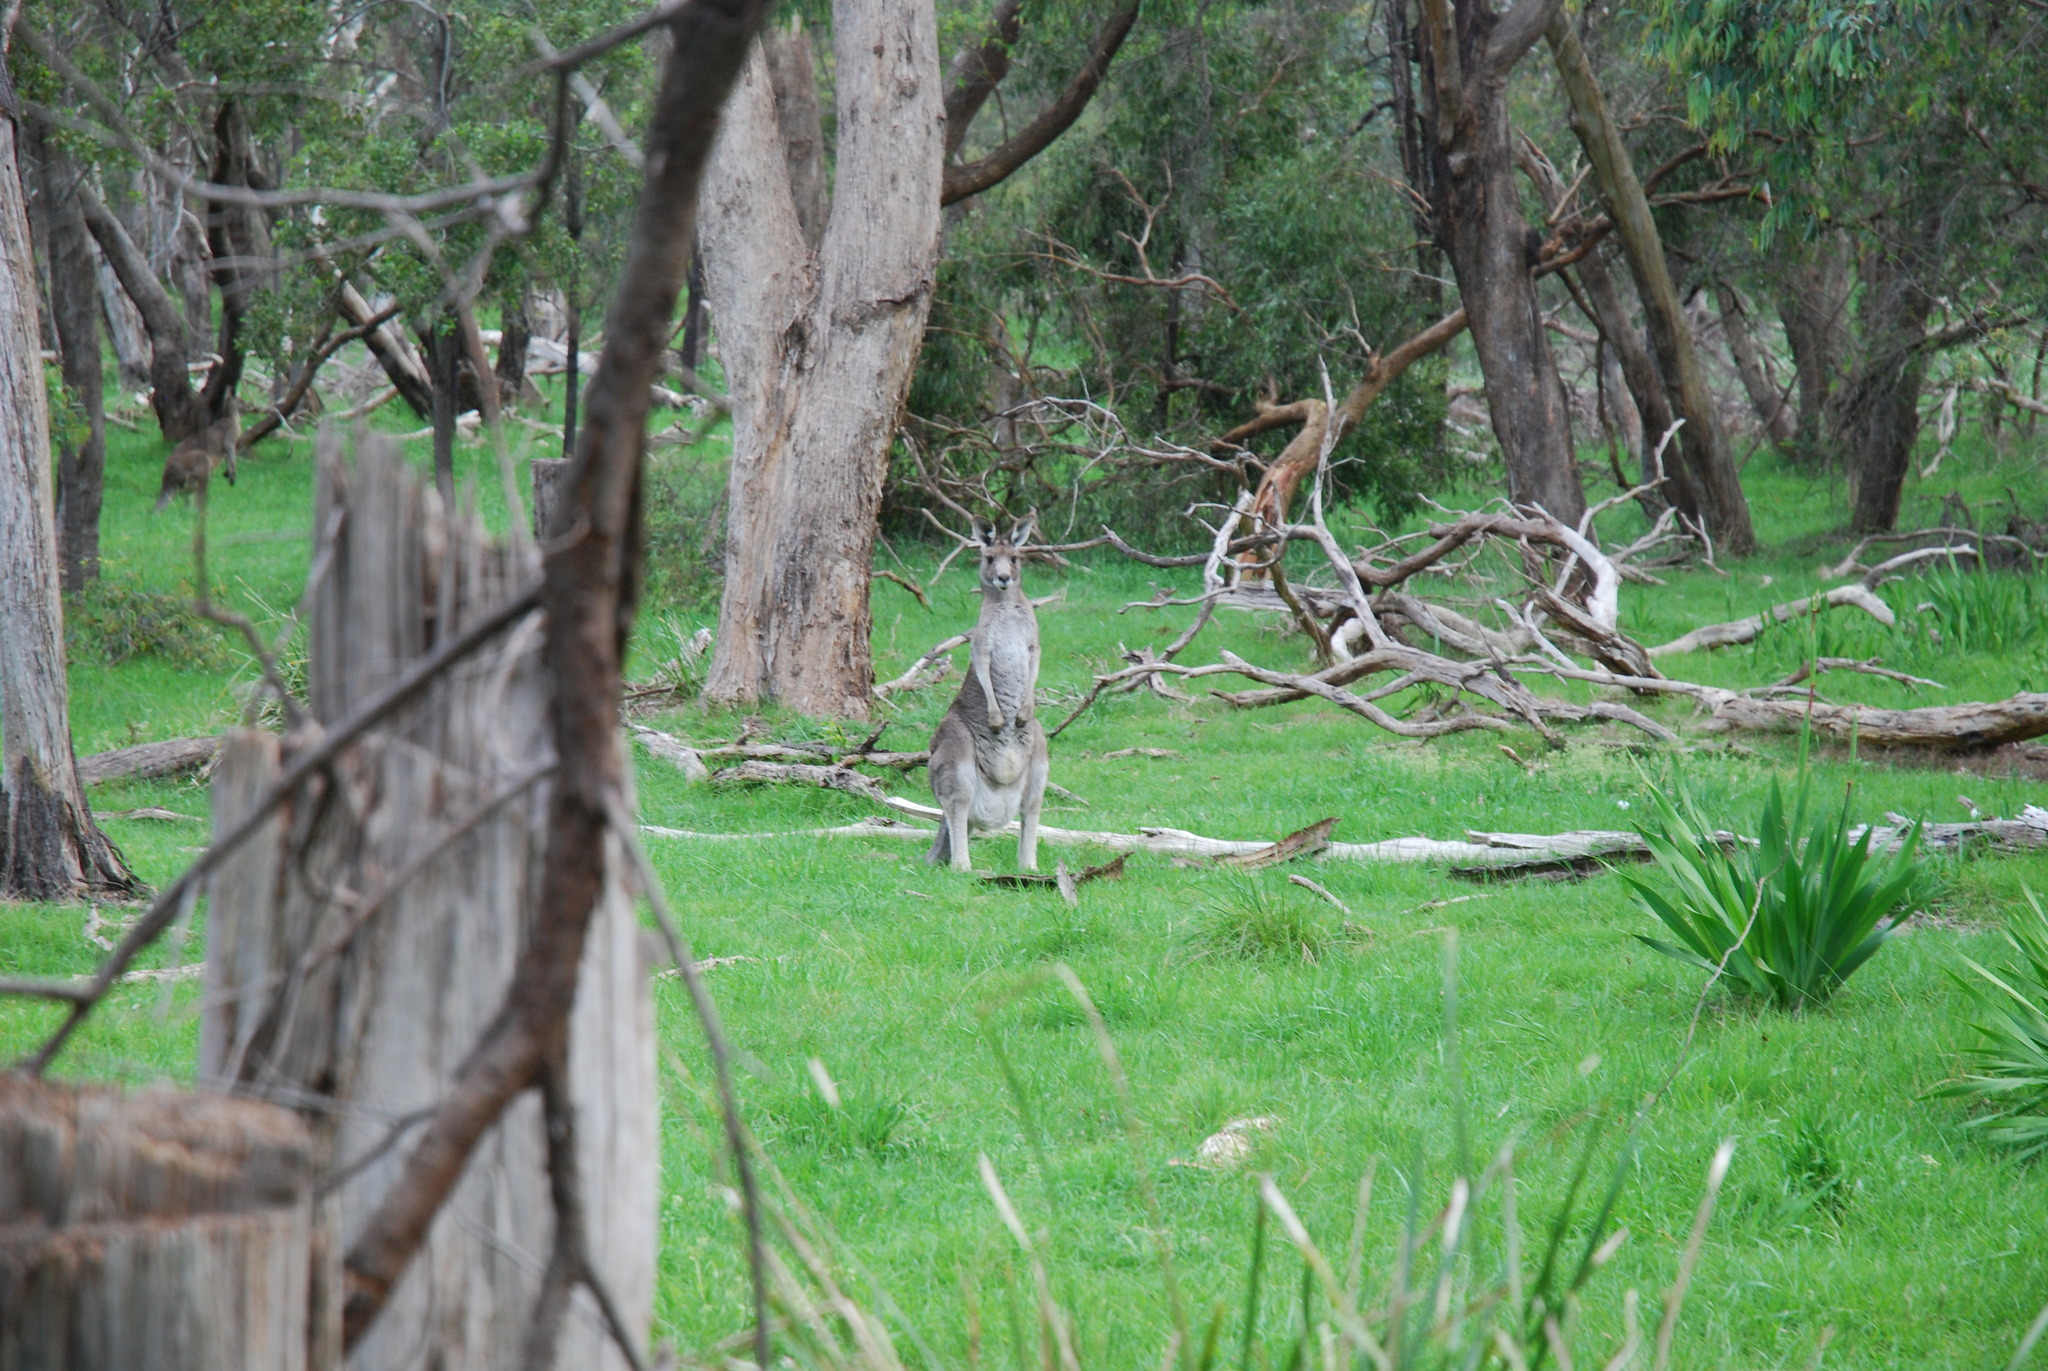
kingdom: Animalia
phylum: Chordata
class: Mammalia
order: Diprotodontia
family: Macropodidae
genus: Macropus
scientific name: Macropus giganteus
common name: Eastern grey kangaroo
